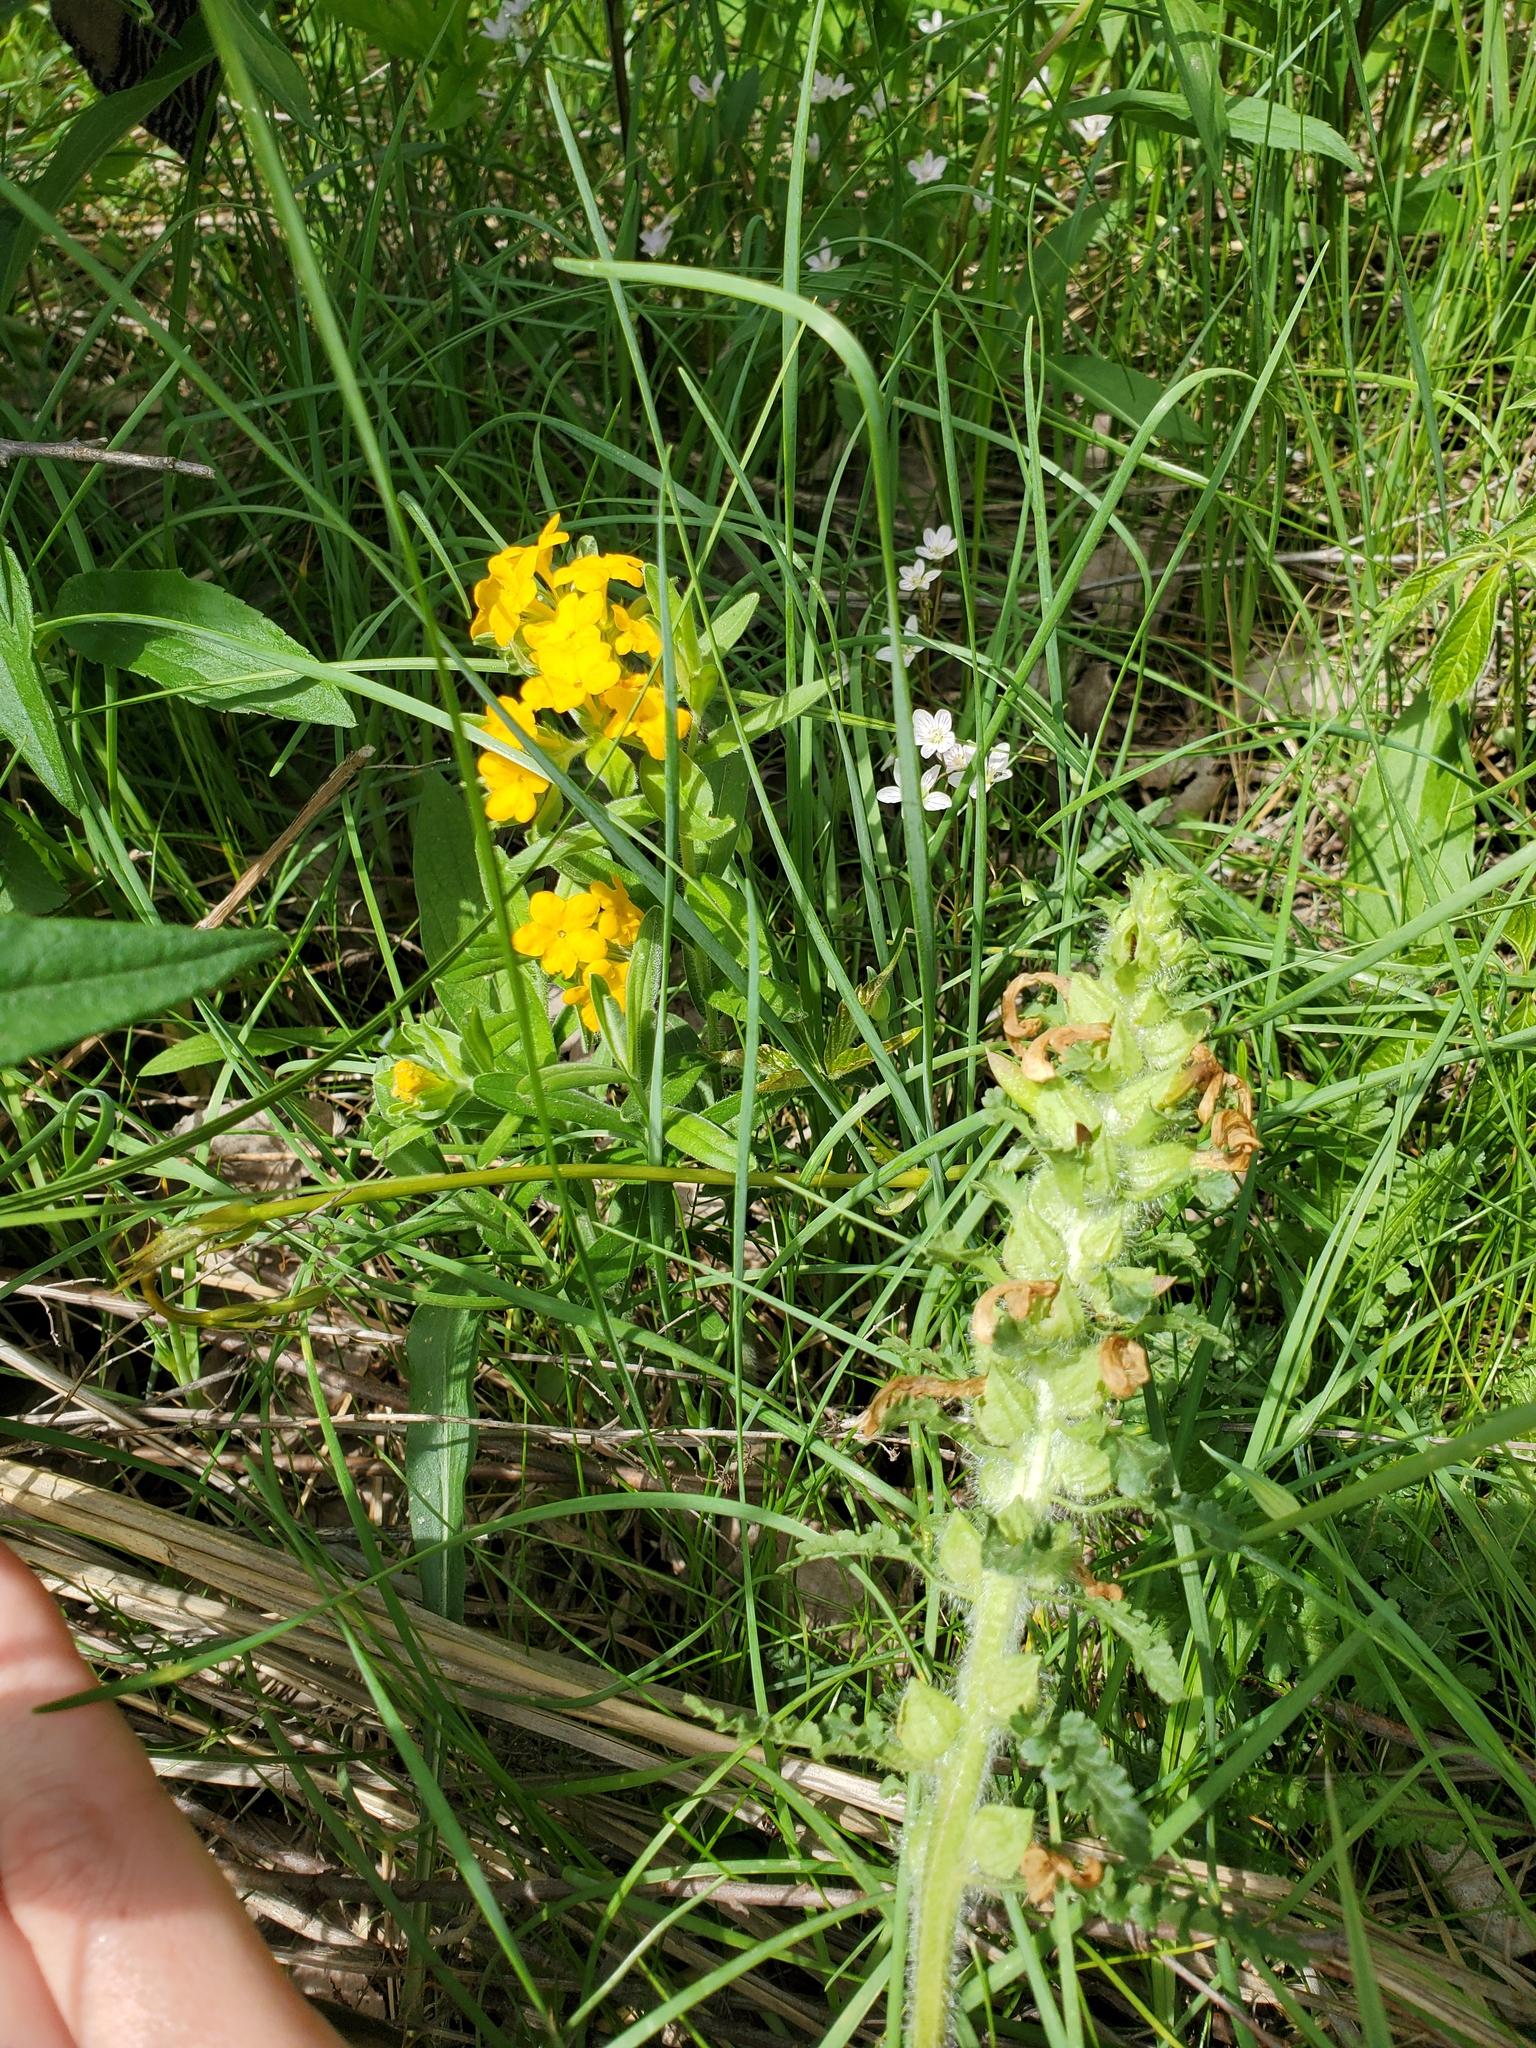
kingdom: Plantae
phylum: Tracheophyta
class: Magnoliopsida
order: Lamiales
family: Orobanchaceae
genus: Pedicularis
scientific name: Pedicularis canadensis
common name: Early lousewort
